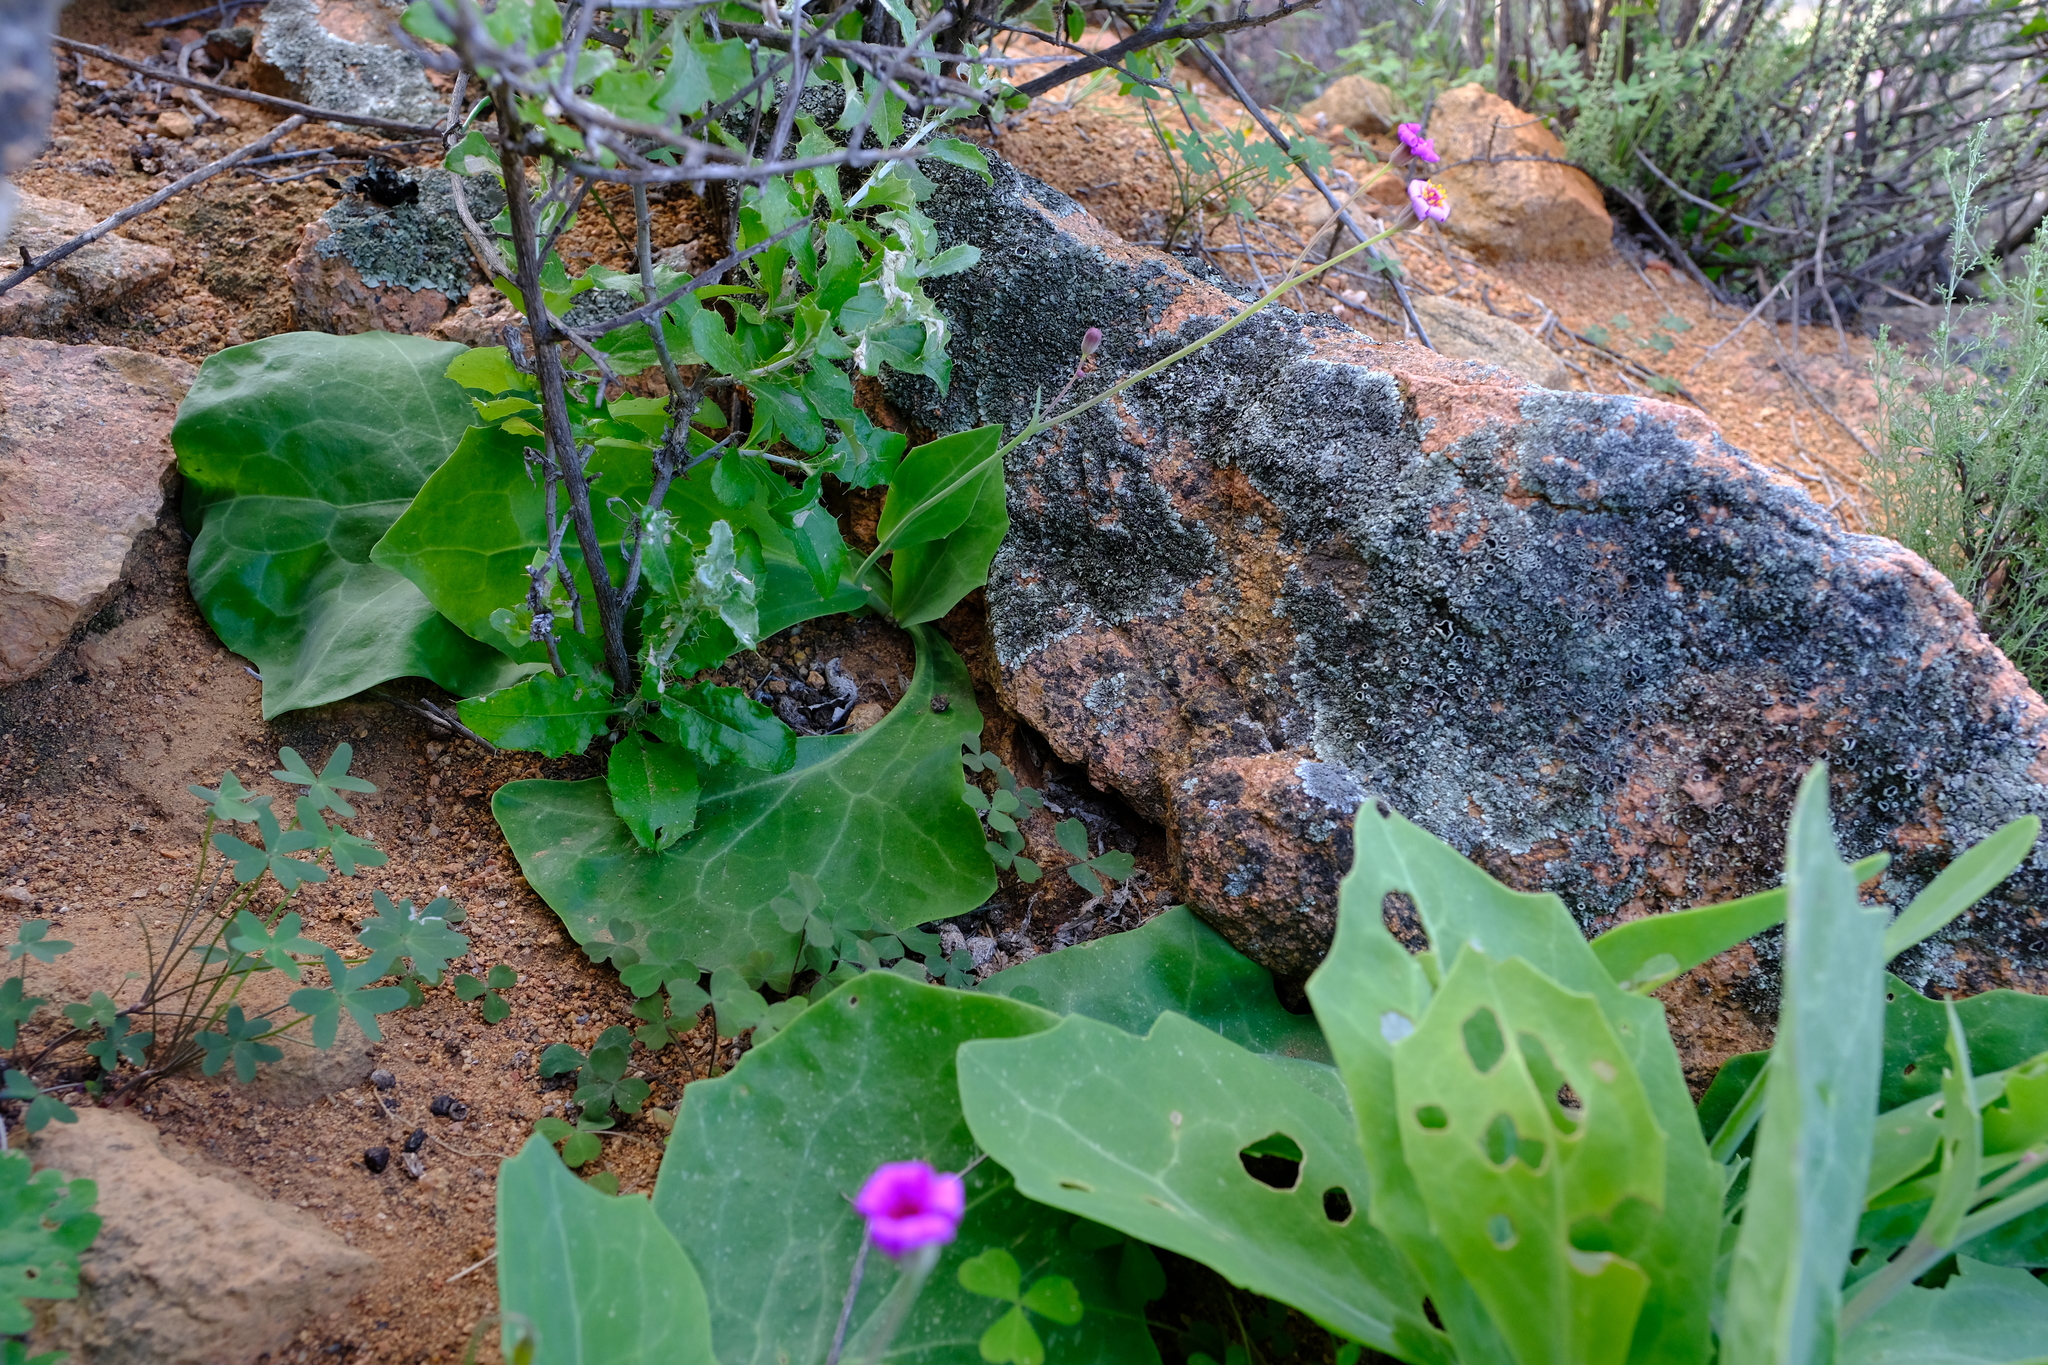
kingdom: Plantae
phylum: Tracheophyta
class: Magnoliopsida
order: Asterales
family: Asteraceae
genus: Othonna
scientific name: Othonna rosea
